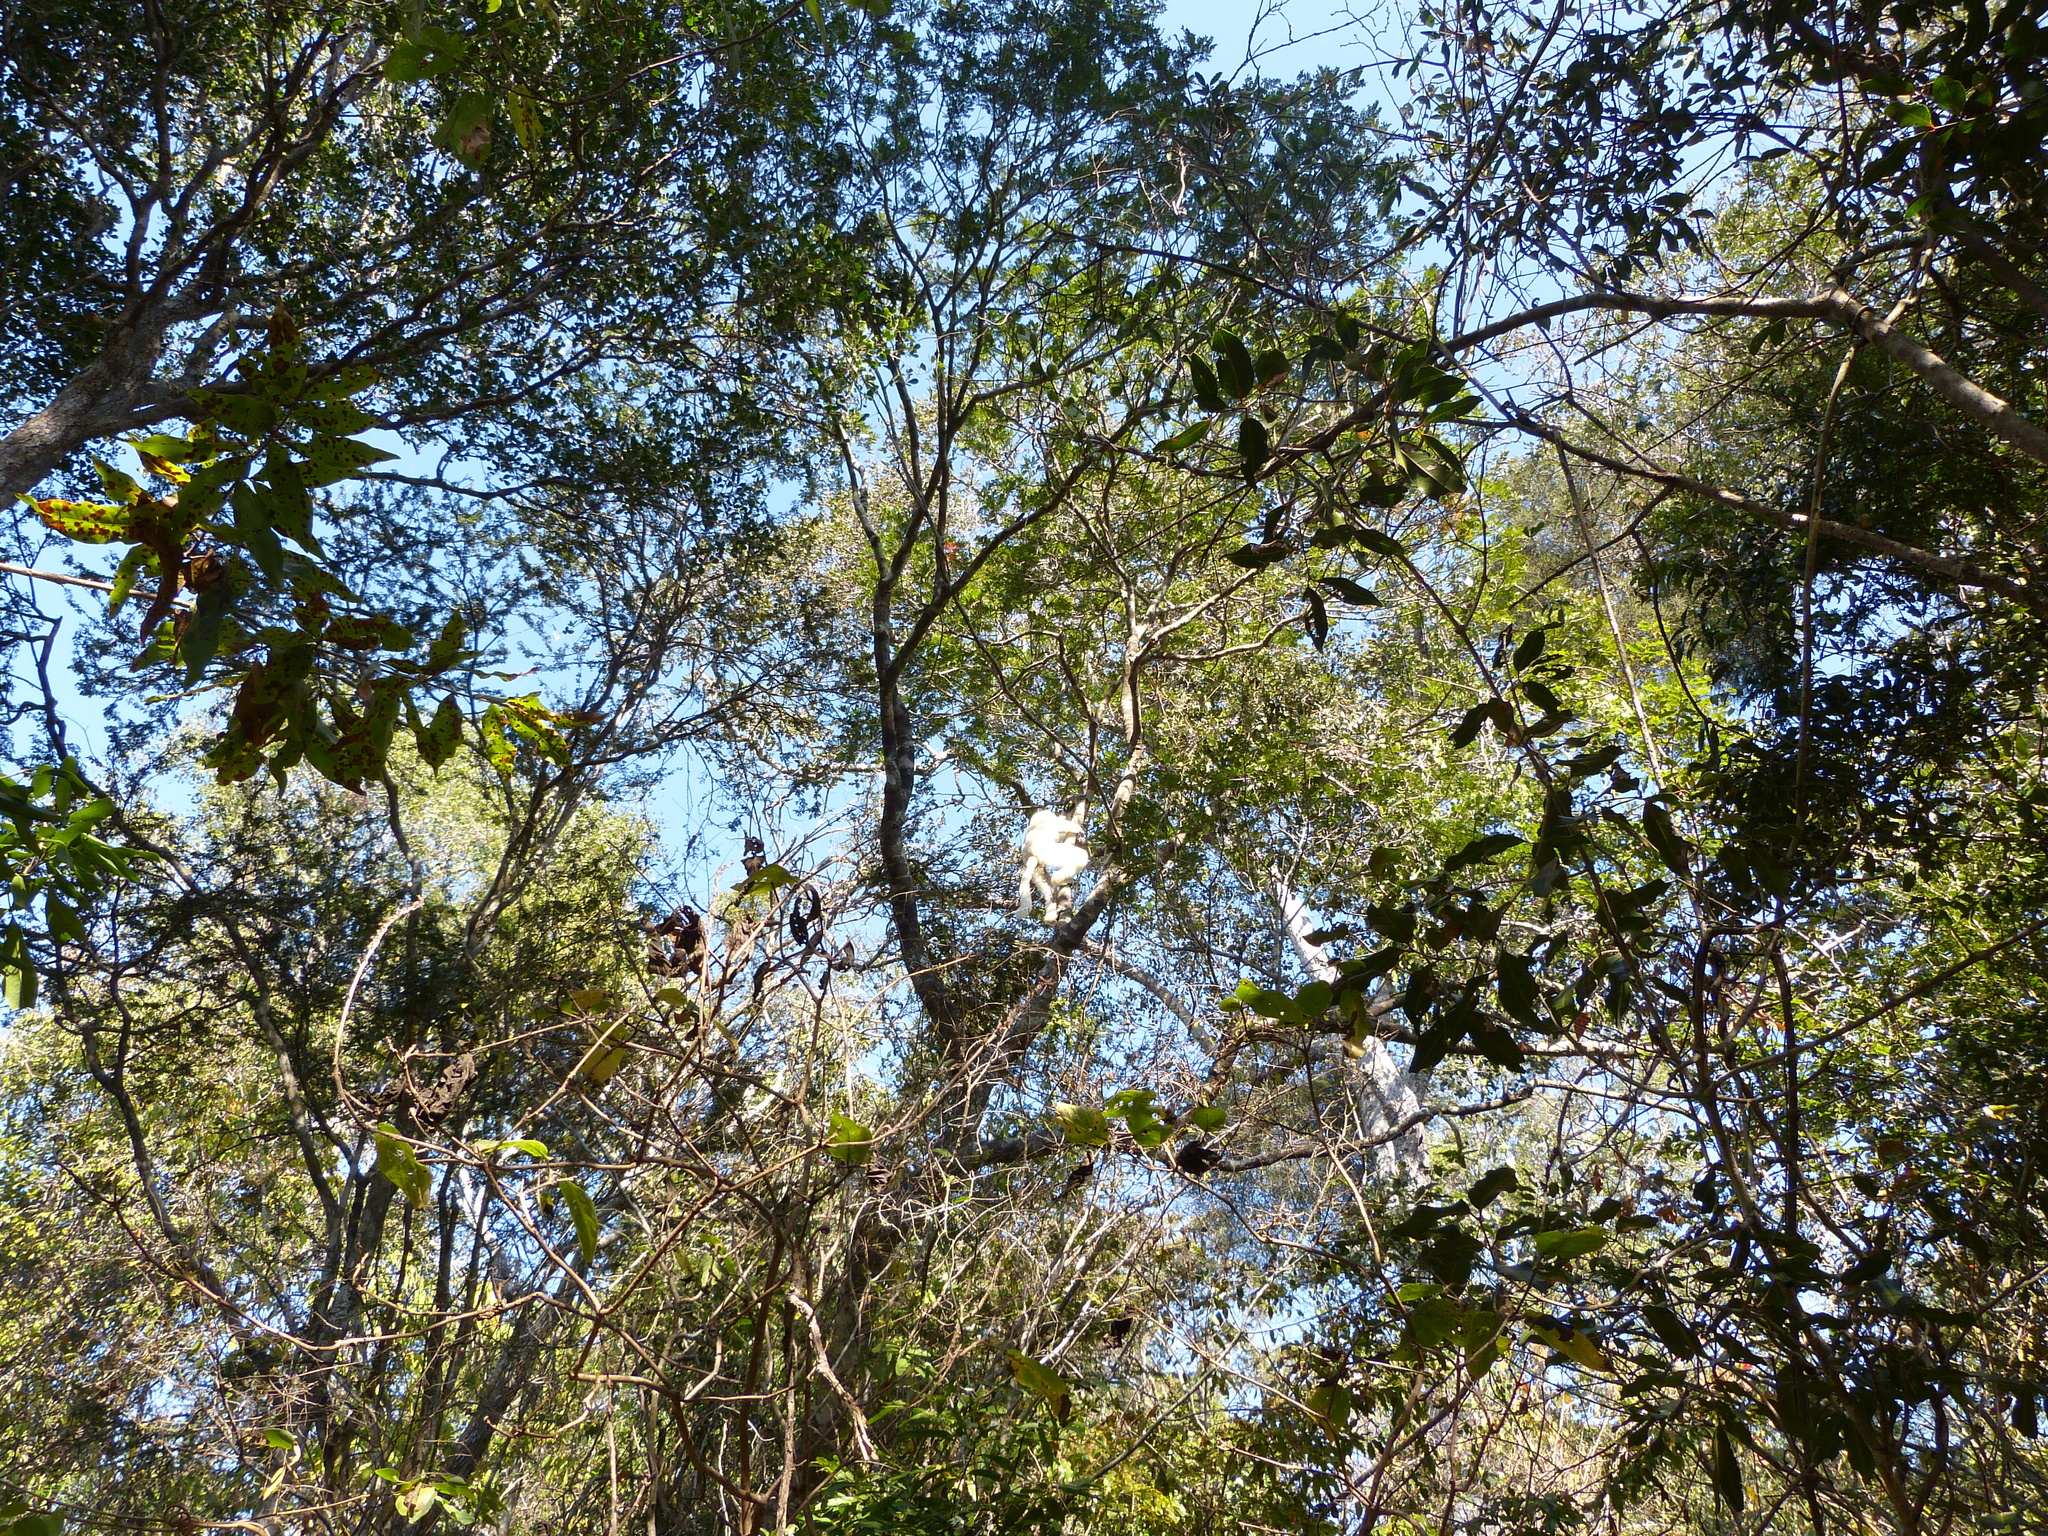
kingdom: Animalia
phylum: Chordata
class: Mammalia
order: Primates
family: Indriidae
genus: Propithecus
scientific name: Propithecus verreauxi
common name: Verreaux's sifaka
